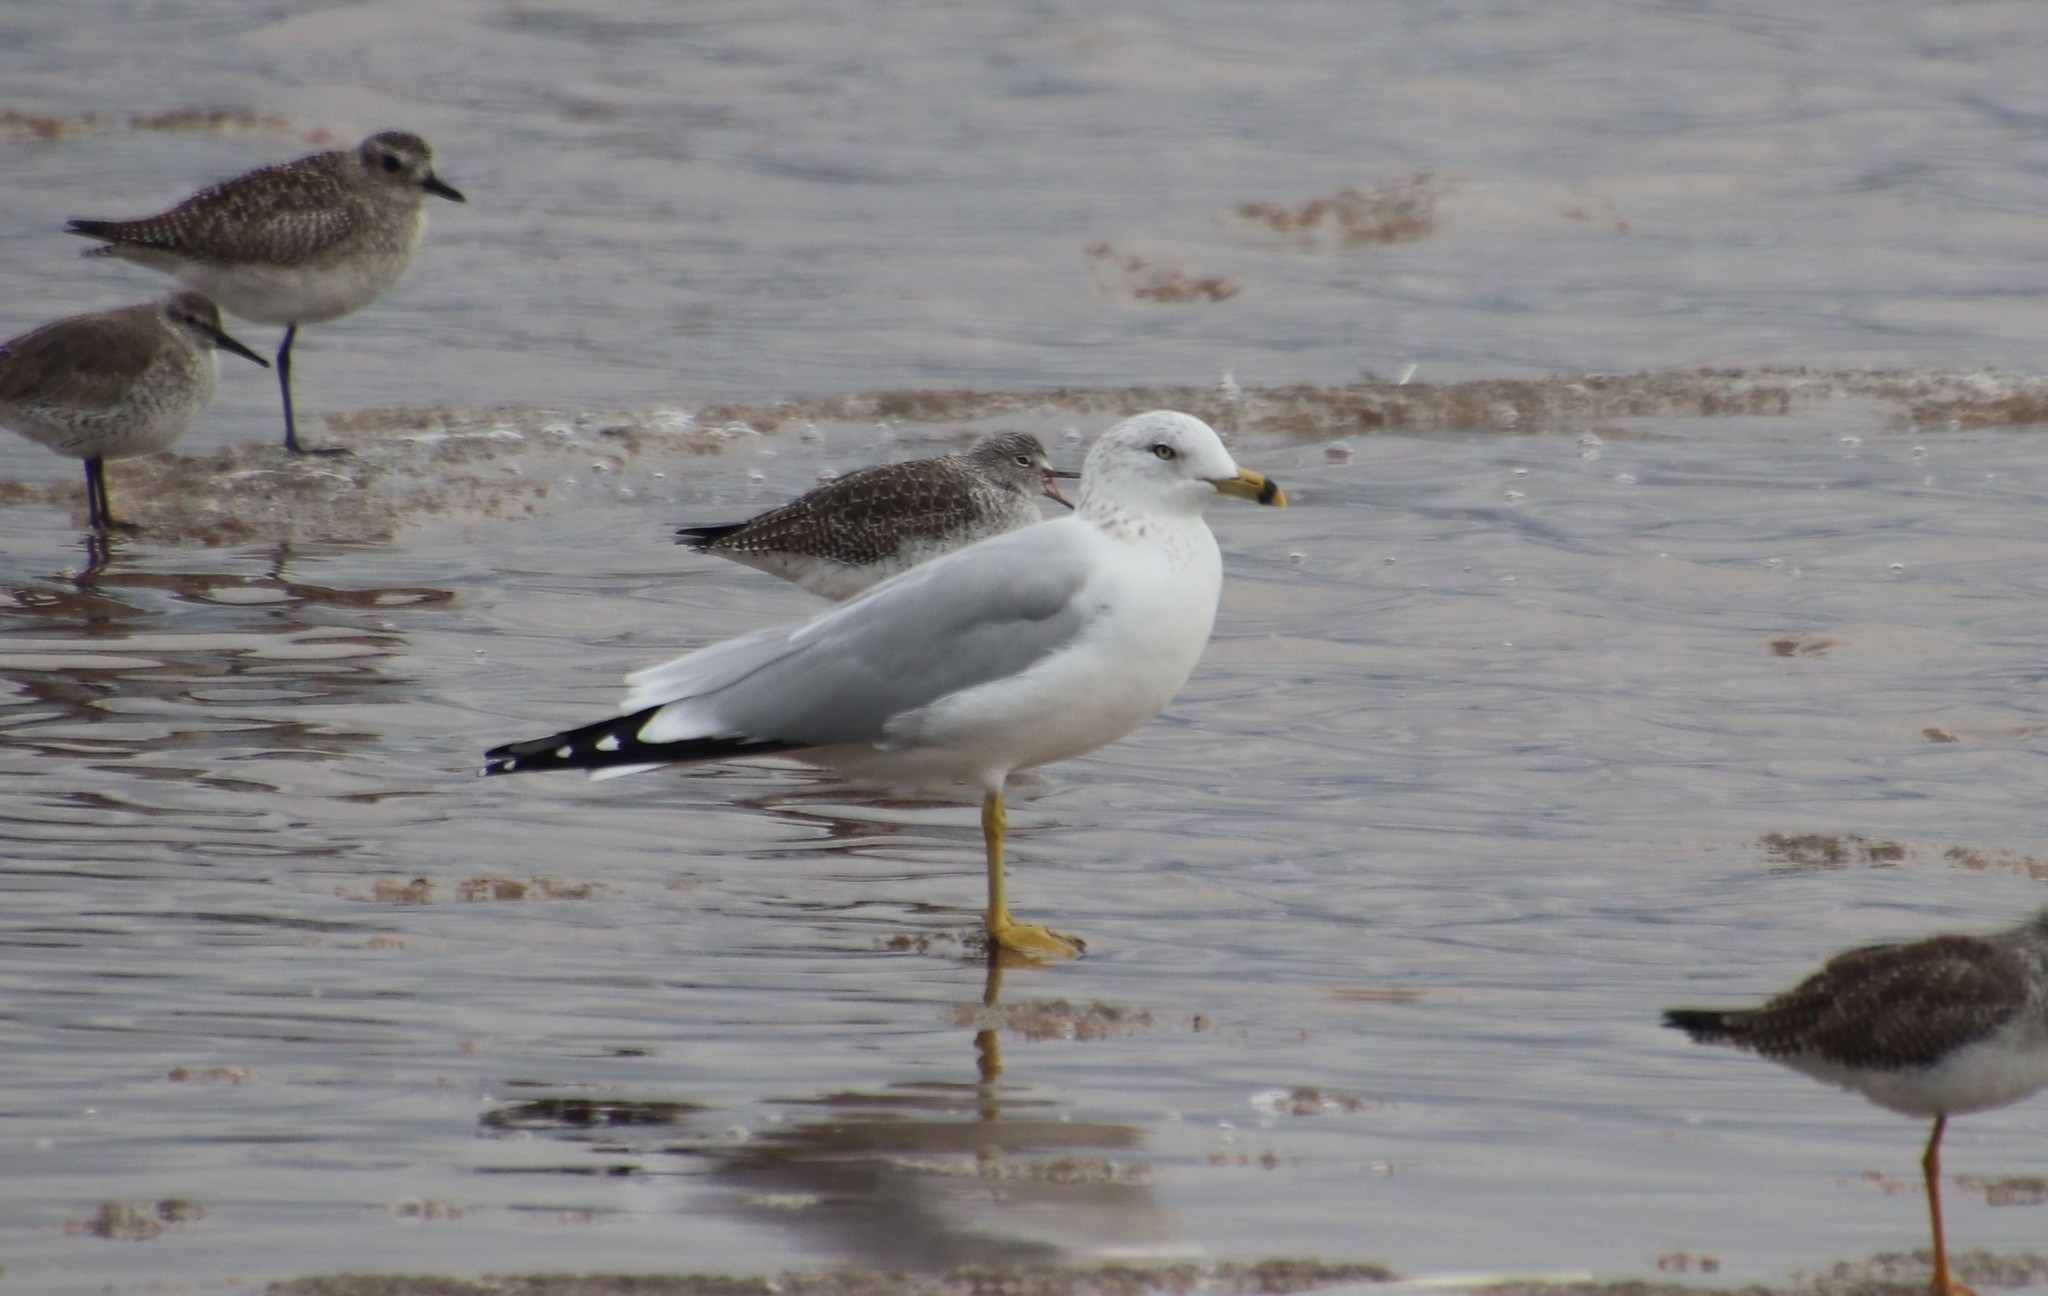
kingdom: Animalia
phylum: Chordata
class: Aves
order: Charadriiformes
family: Laridae
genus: Larus
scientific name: Larus delawarensis
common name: Ring-billed gull
